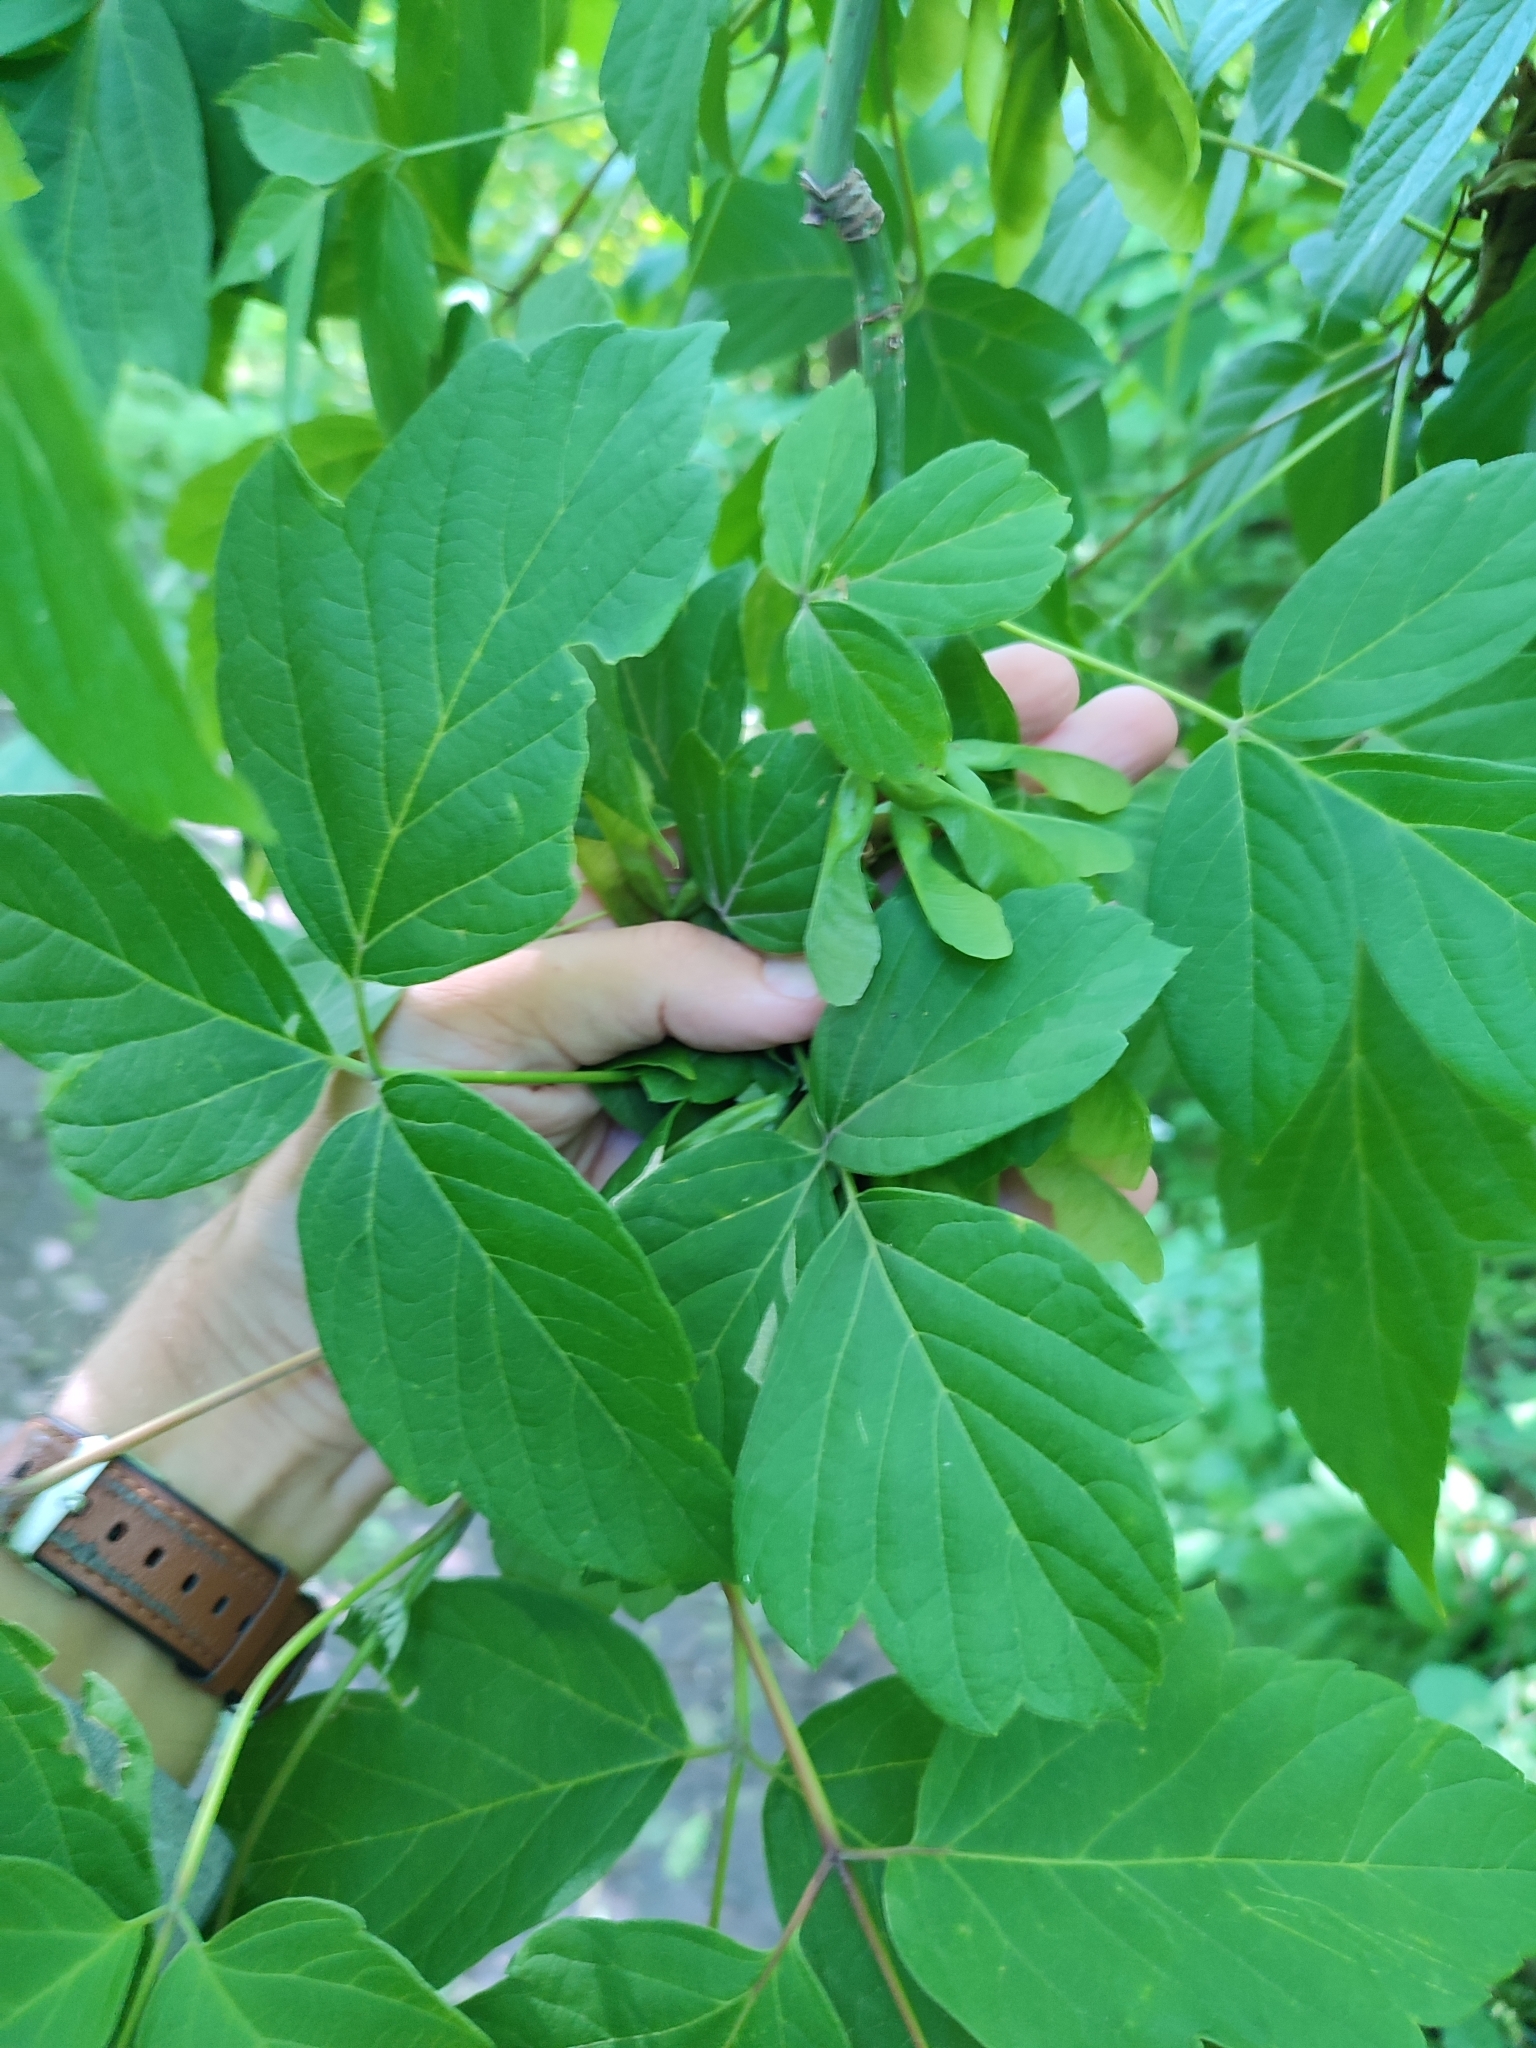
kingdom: Plantae
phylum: Tracheophyta
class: Magnoliopsida
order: Sapindales
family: Sapindaceae
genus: Acer
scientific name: Acer negundo
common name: Ashleaf maple
